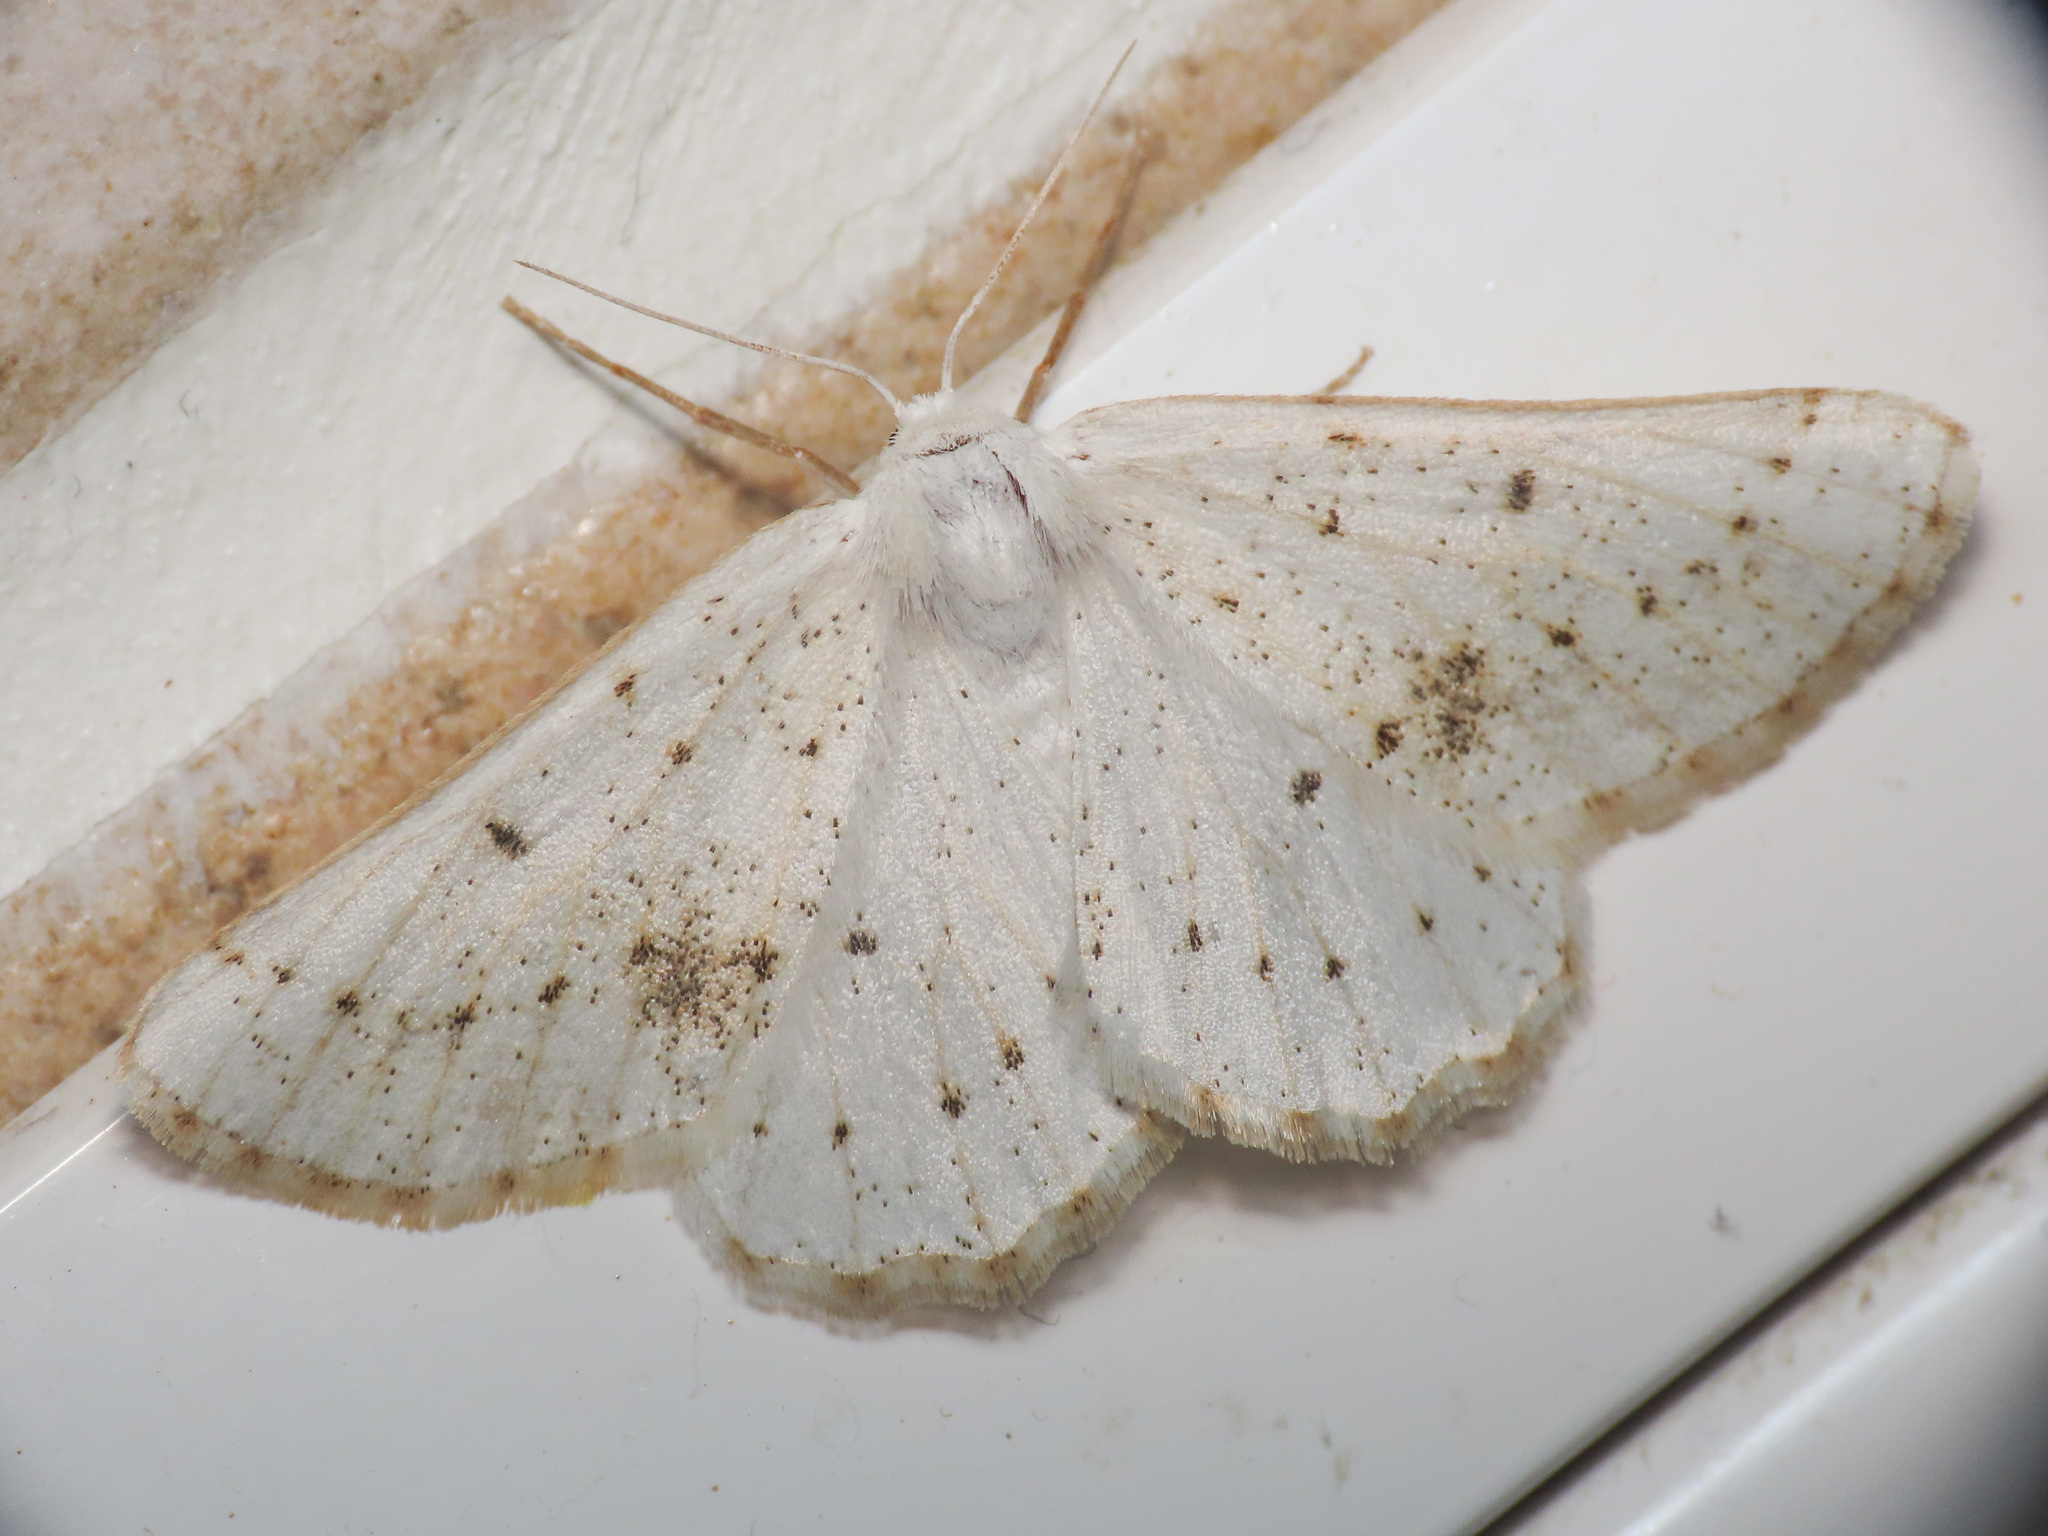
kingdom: Animalia
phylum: Arthropoda
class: Insecta
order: Lepidoptera
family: Geometridae
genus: Dyscia
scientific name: Dyscia govii
